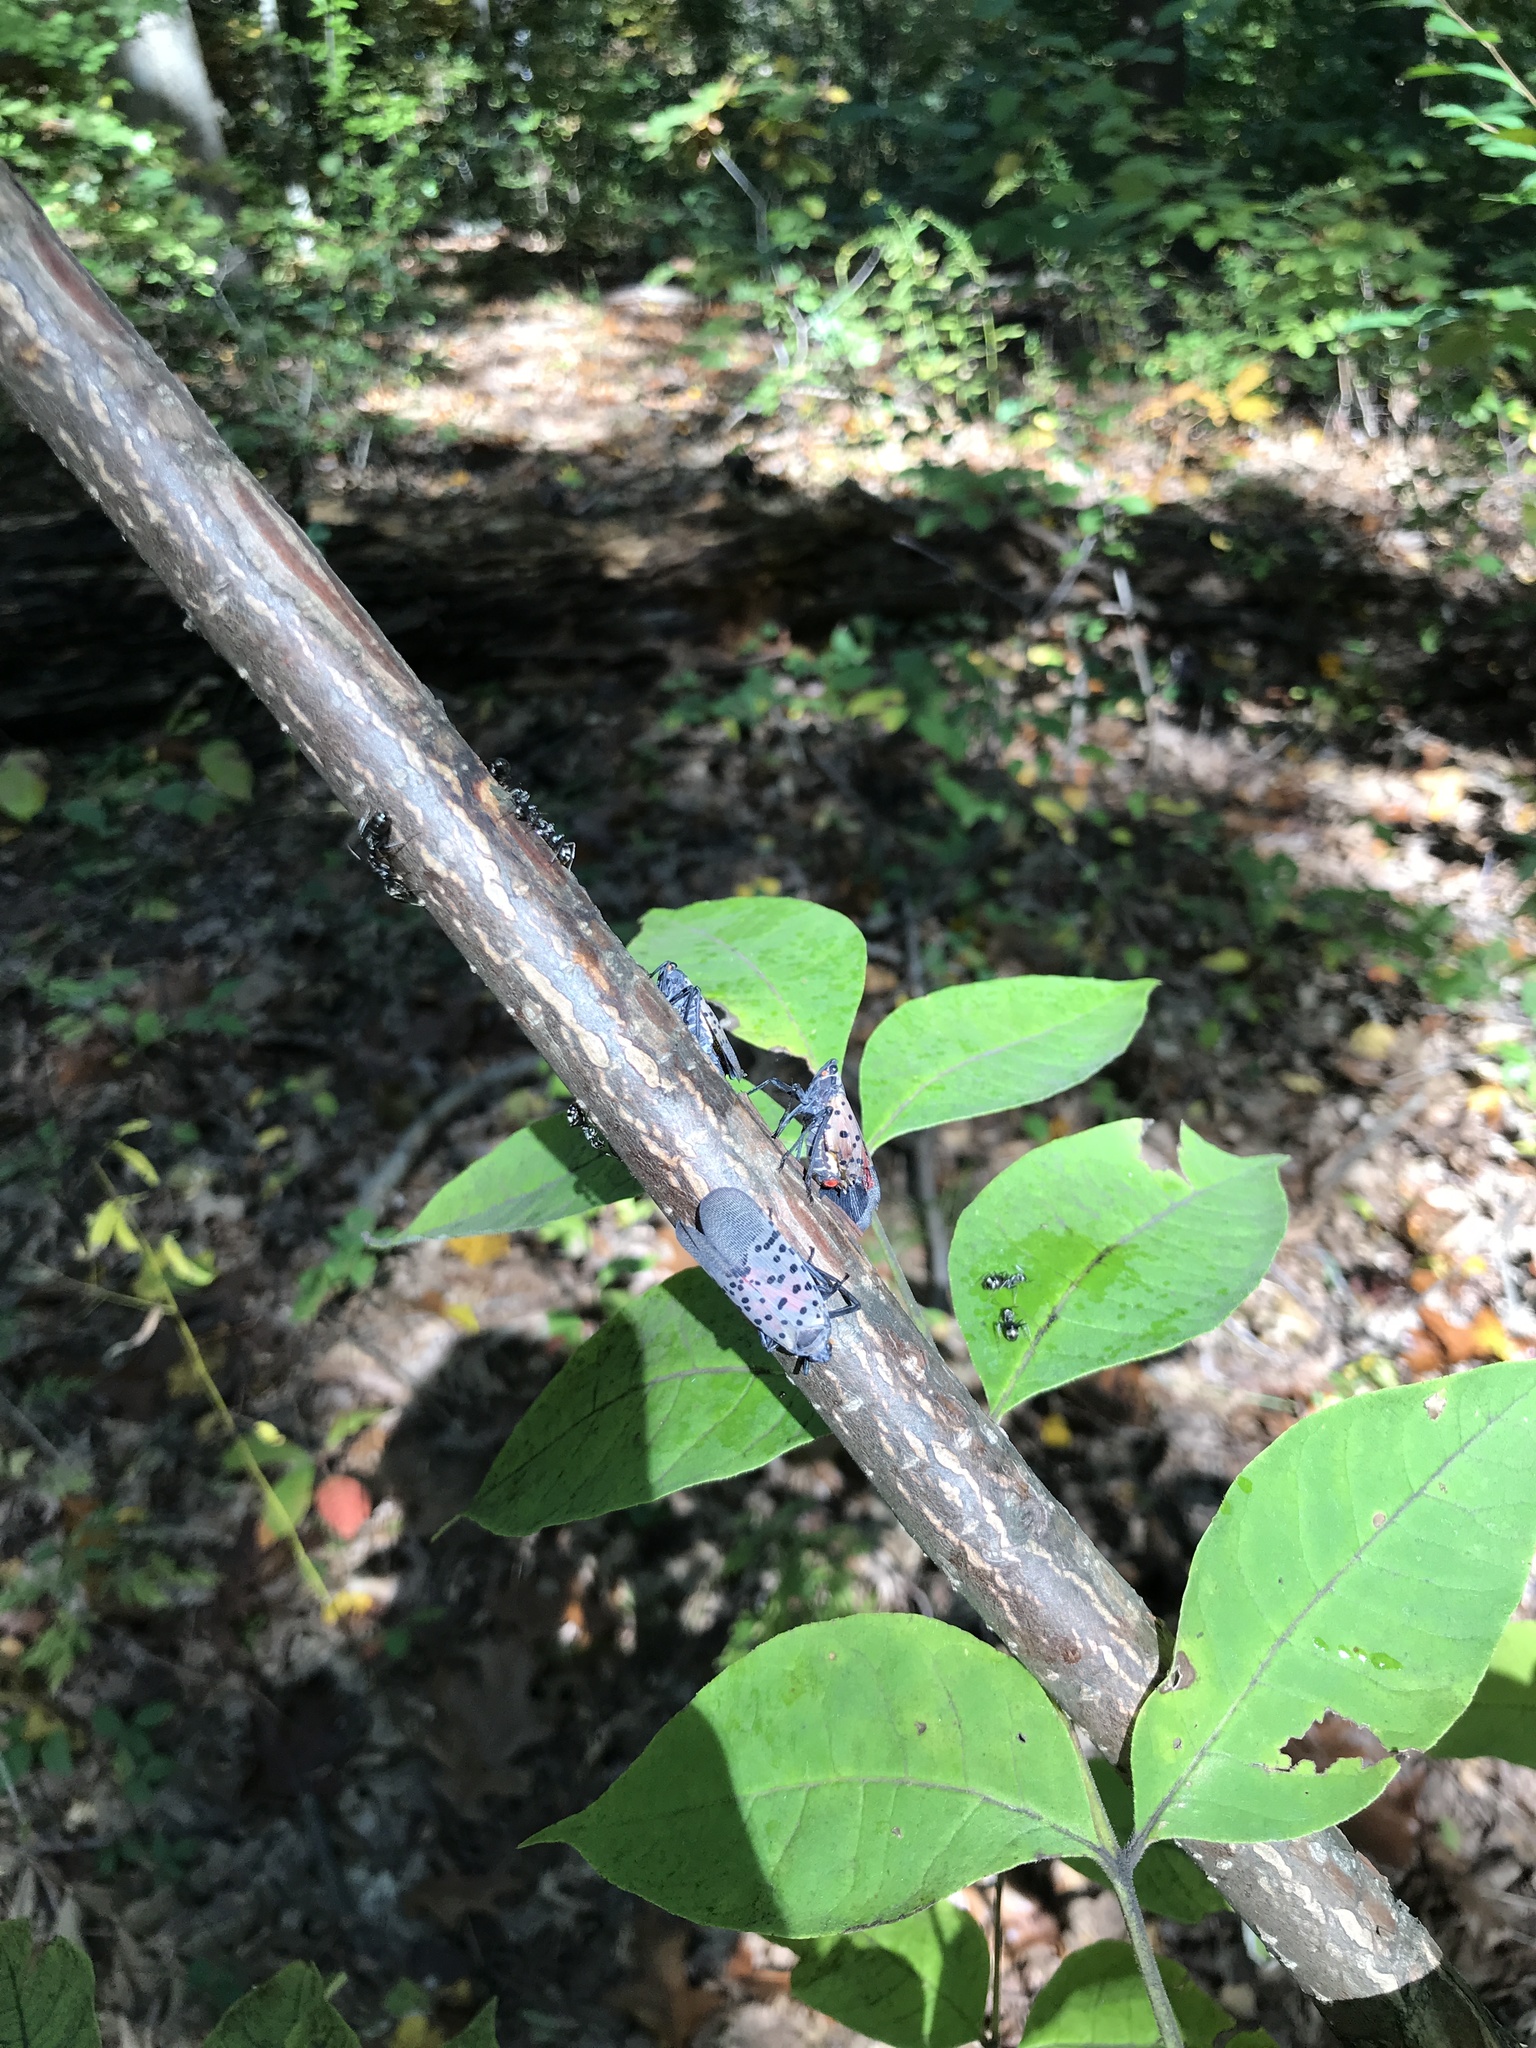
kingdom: Animalia
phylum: Arthropoda
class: Insecta
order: Hemiptera
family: Fulgoridae
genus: Lycorma
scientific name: Lycorma delicatula
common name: Spotted lanternfly
